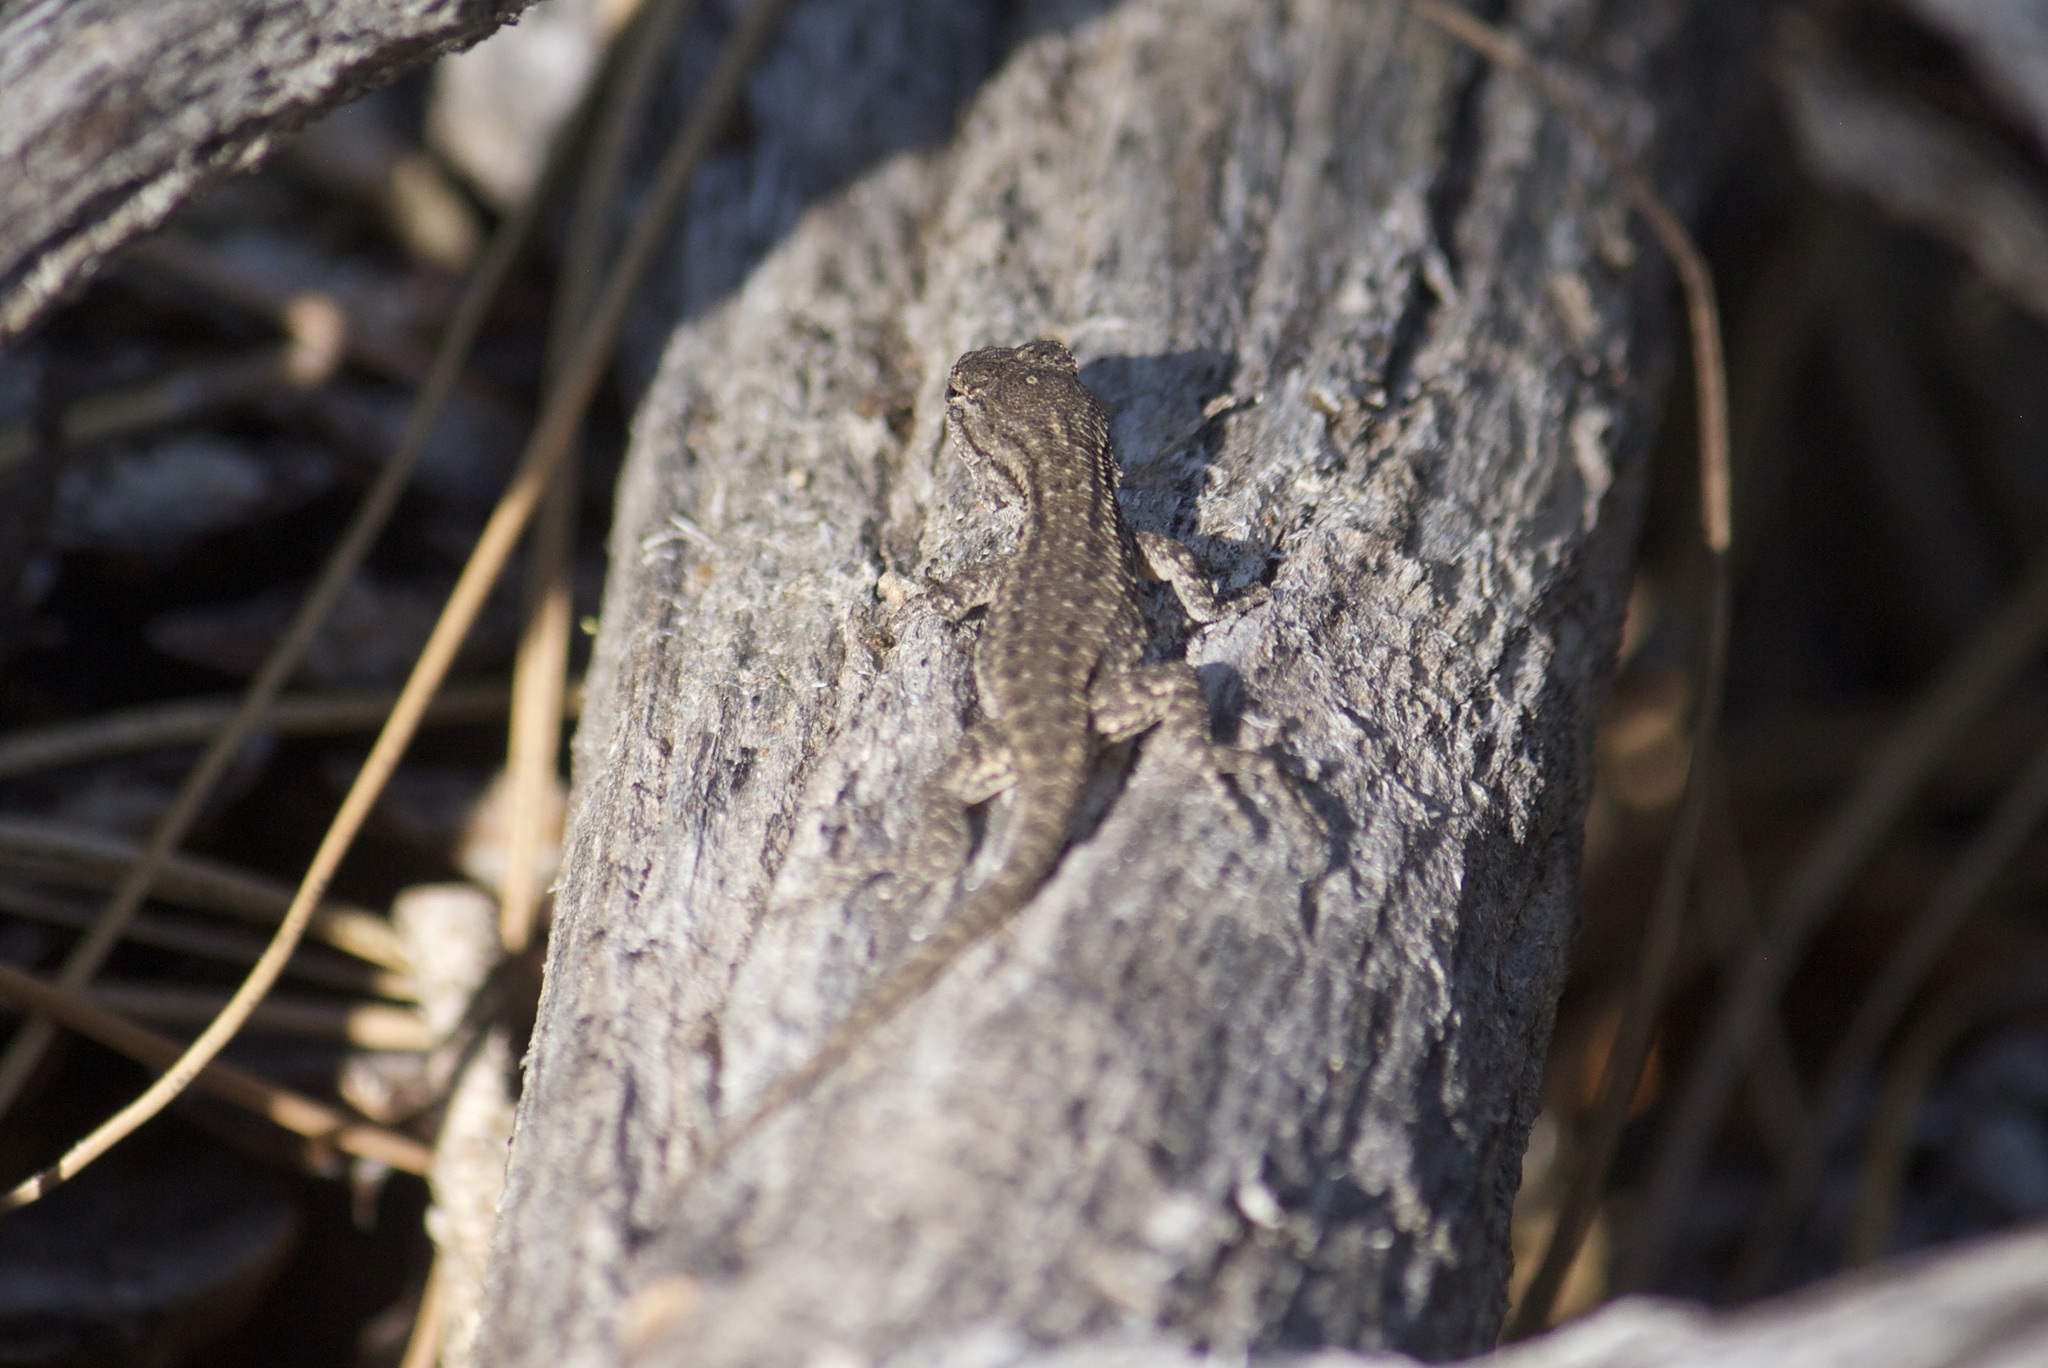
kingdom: Animalia
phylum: Chordata
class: Squamata
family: Phrynosomatidae
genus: Sceloporus
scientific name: Sceloporus occidentalis
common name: Western fence lizard
